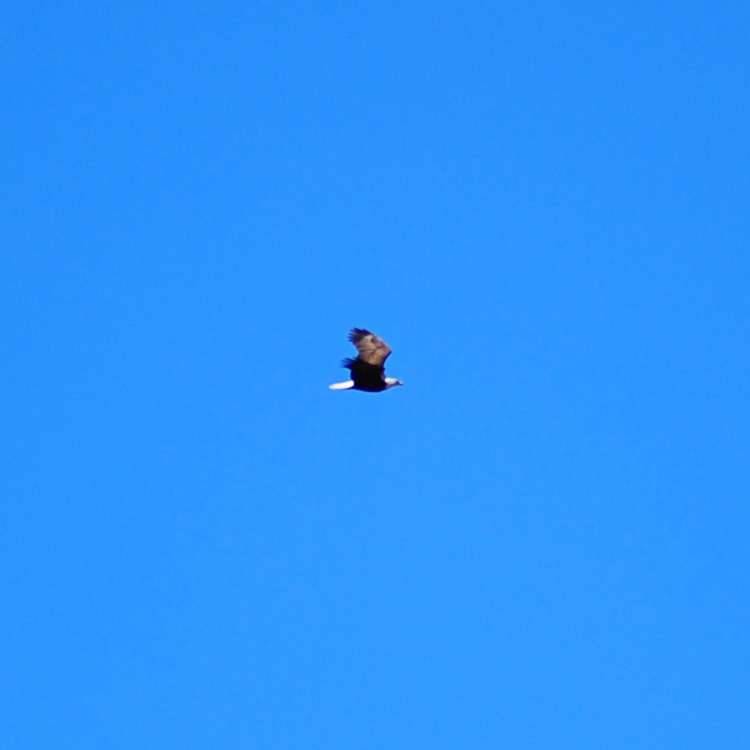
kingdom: Animalia
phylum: Chordata
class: Aves
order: Accipitriformes
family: Accipitridae
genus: Haliaeetus
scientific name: Haliaeetus leucocephalus
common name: Bald eagle
